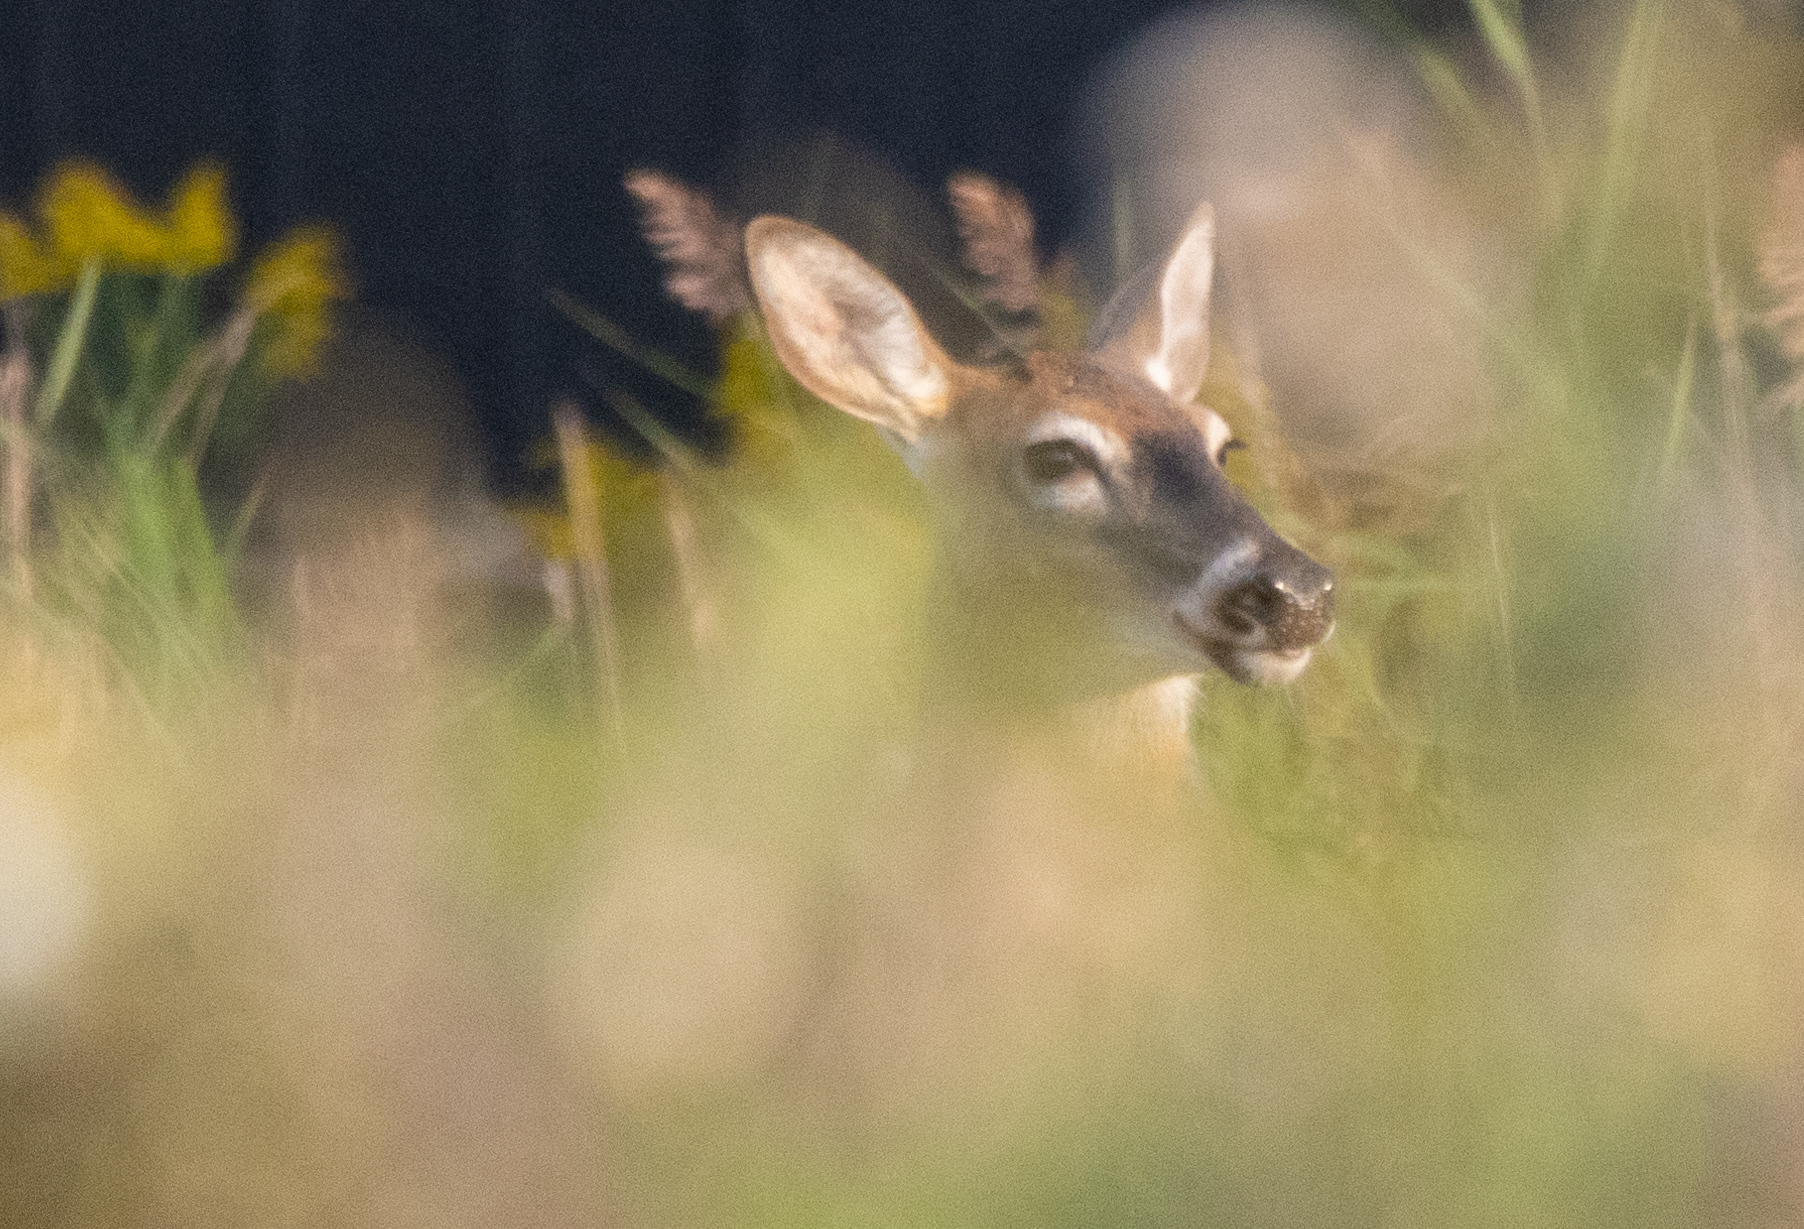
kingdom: Animalia
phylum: Chordata
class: Mammalia
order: Artiodactyla
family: Cervidae
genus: Odocoileus
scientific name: Odocoileus virginianus
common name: White-tailed deer
